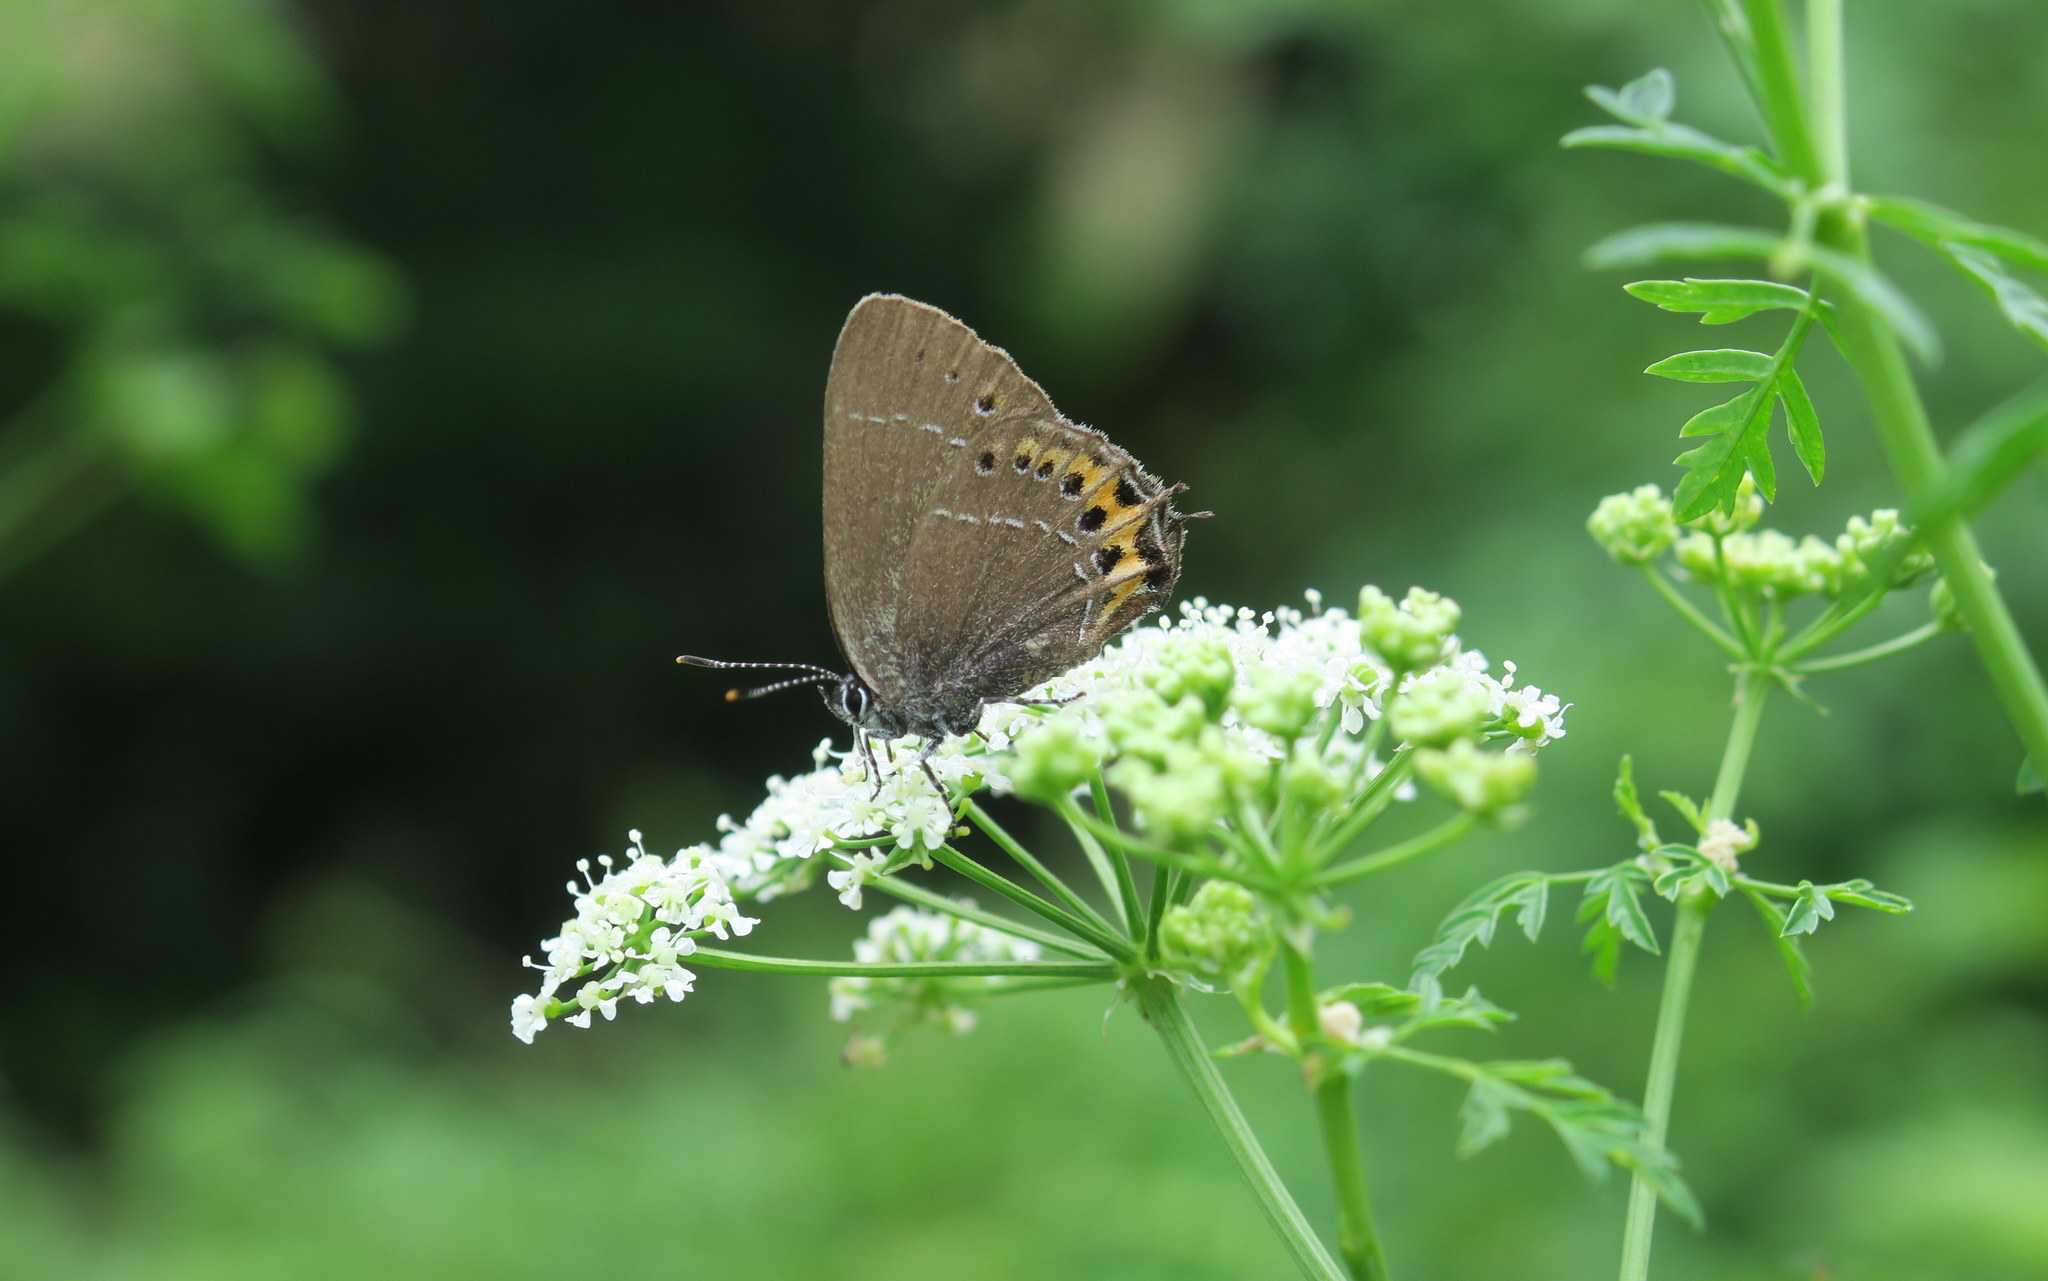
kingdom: Animalia
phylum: Arthropoda
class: Insecta
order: Lepidoptera
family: Lycaenidae
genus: Fixsenia
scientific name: Fixsenia pruni
